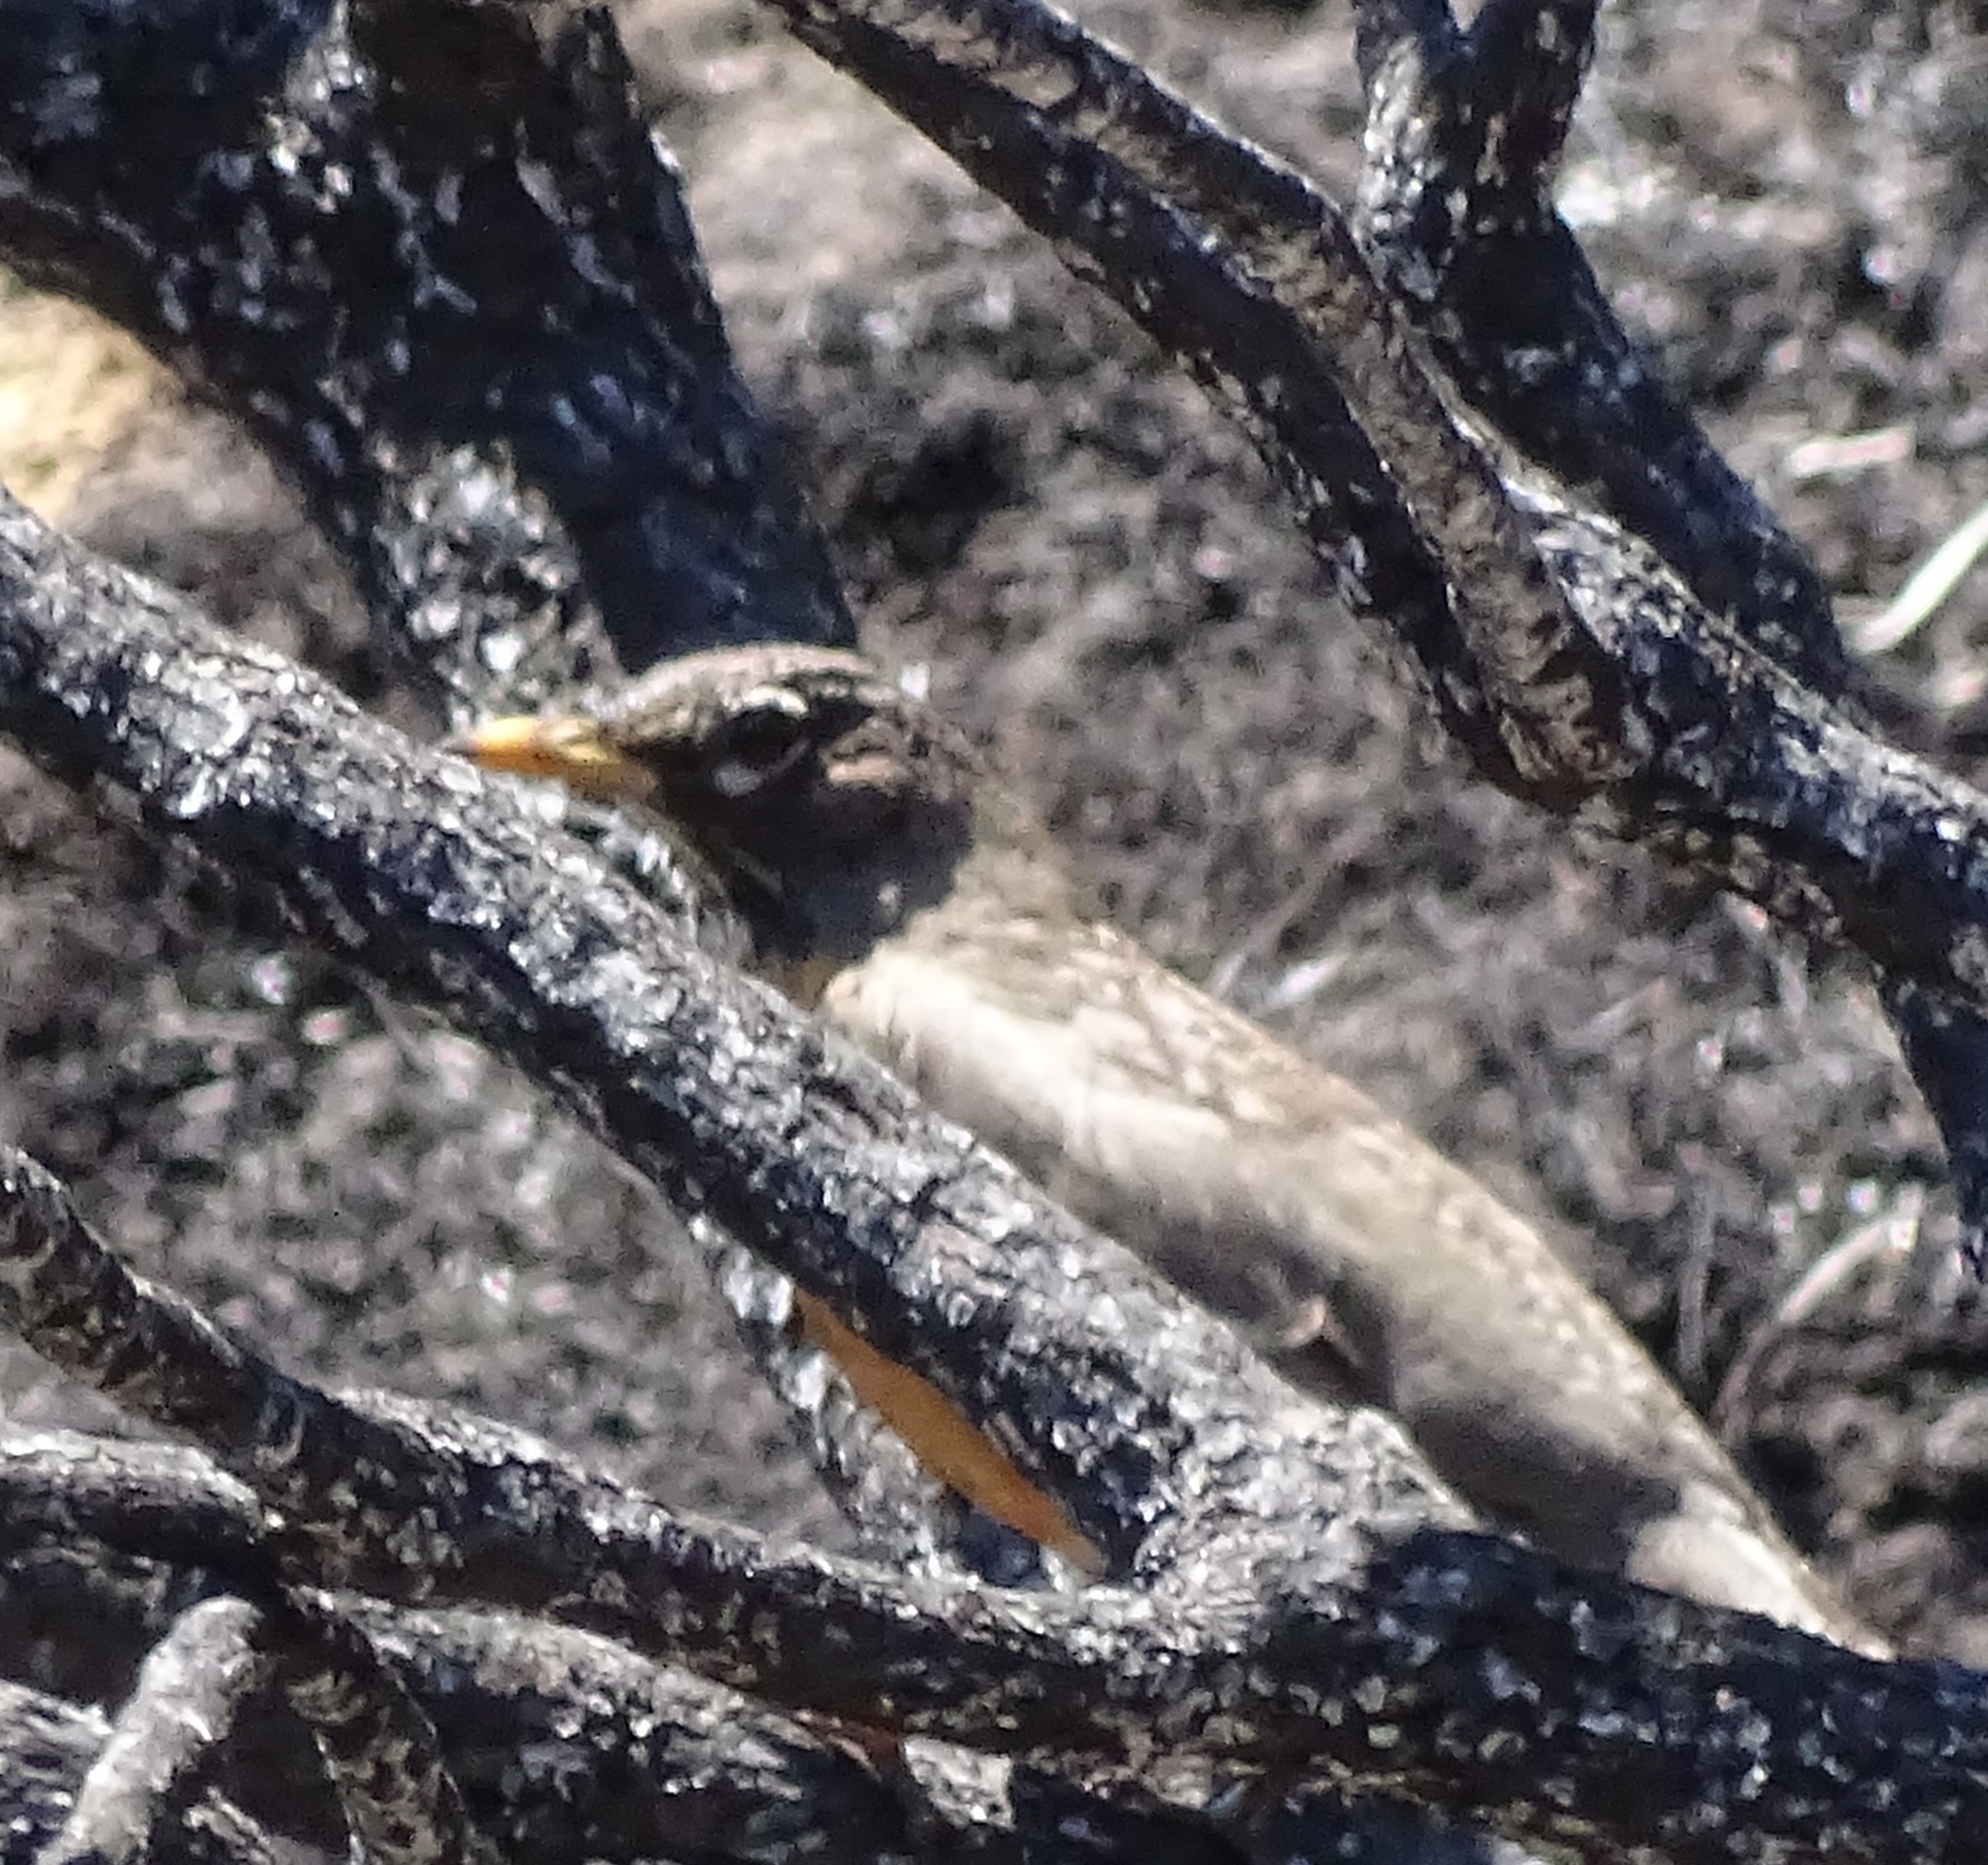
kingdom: Animalia
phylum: Chordata
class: Aves
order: Passeriformes
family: Turdidae
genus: Turdus
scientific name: Turdus migratorius
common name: American robin
